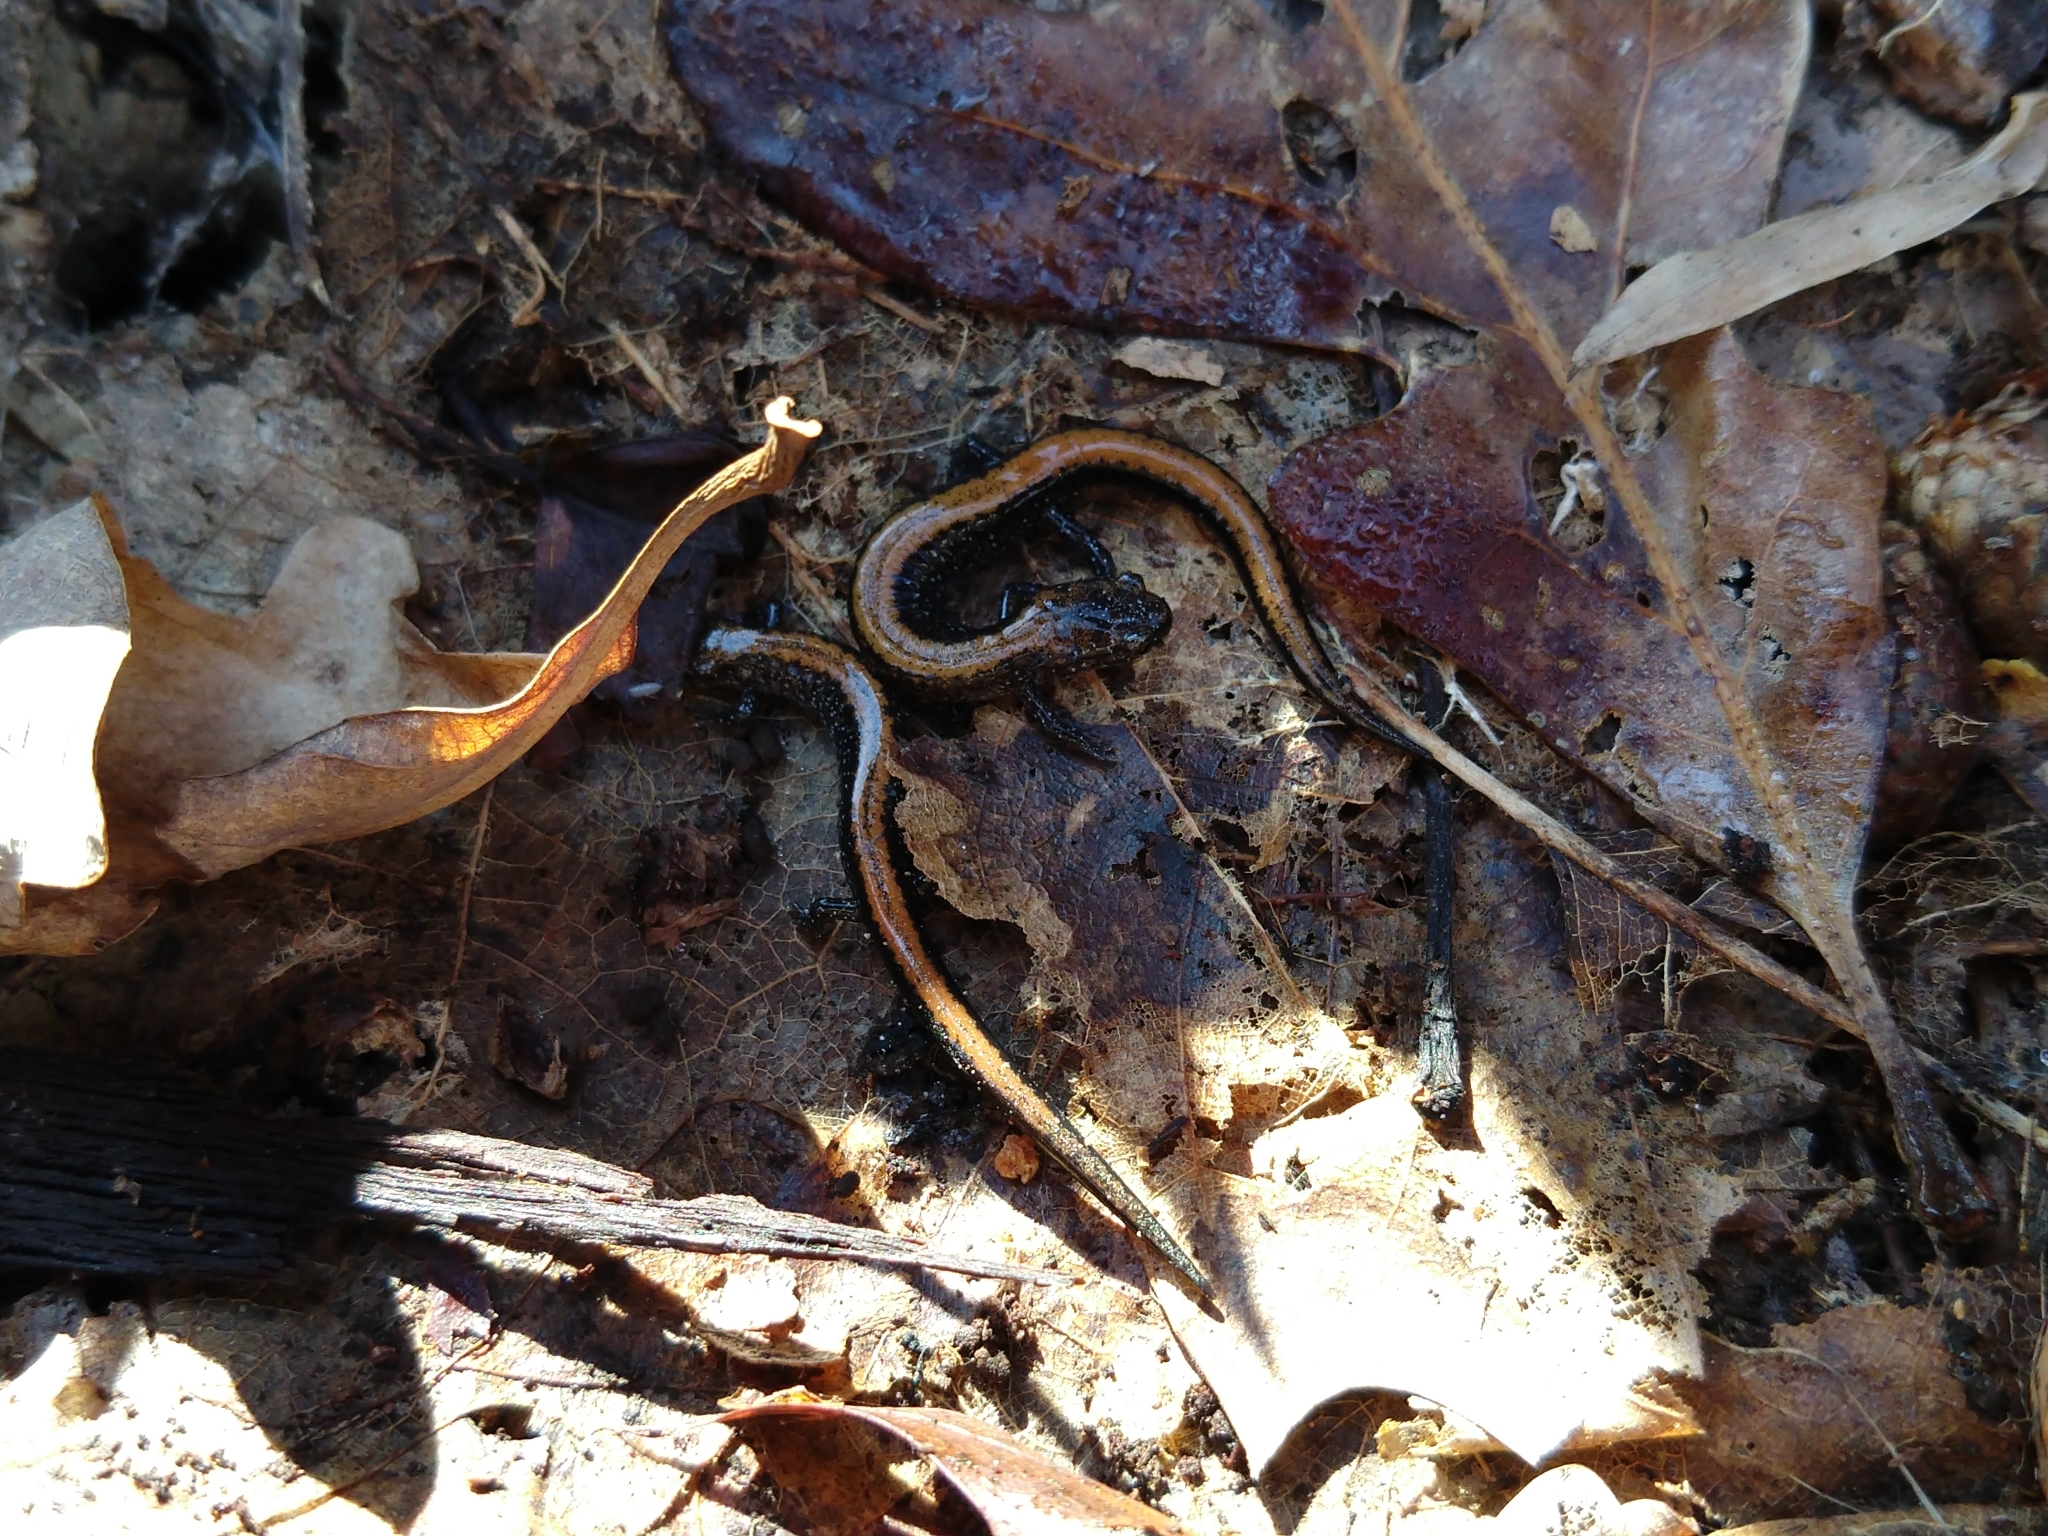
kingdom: Animalia
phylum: Chordata
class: Amphibia
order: Caudata
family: Plethodontidae
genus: Plethodon
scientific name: Plethodon cinereus
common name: Redback salamander
